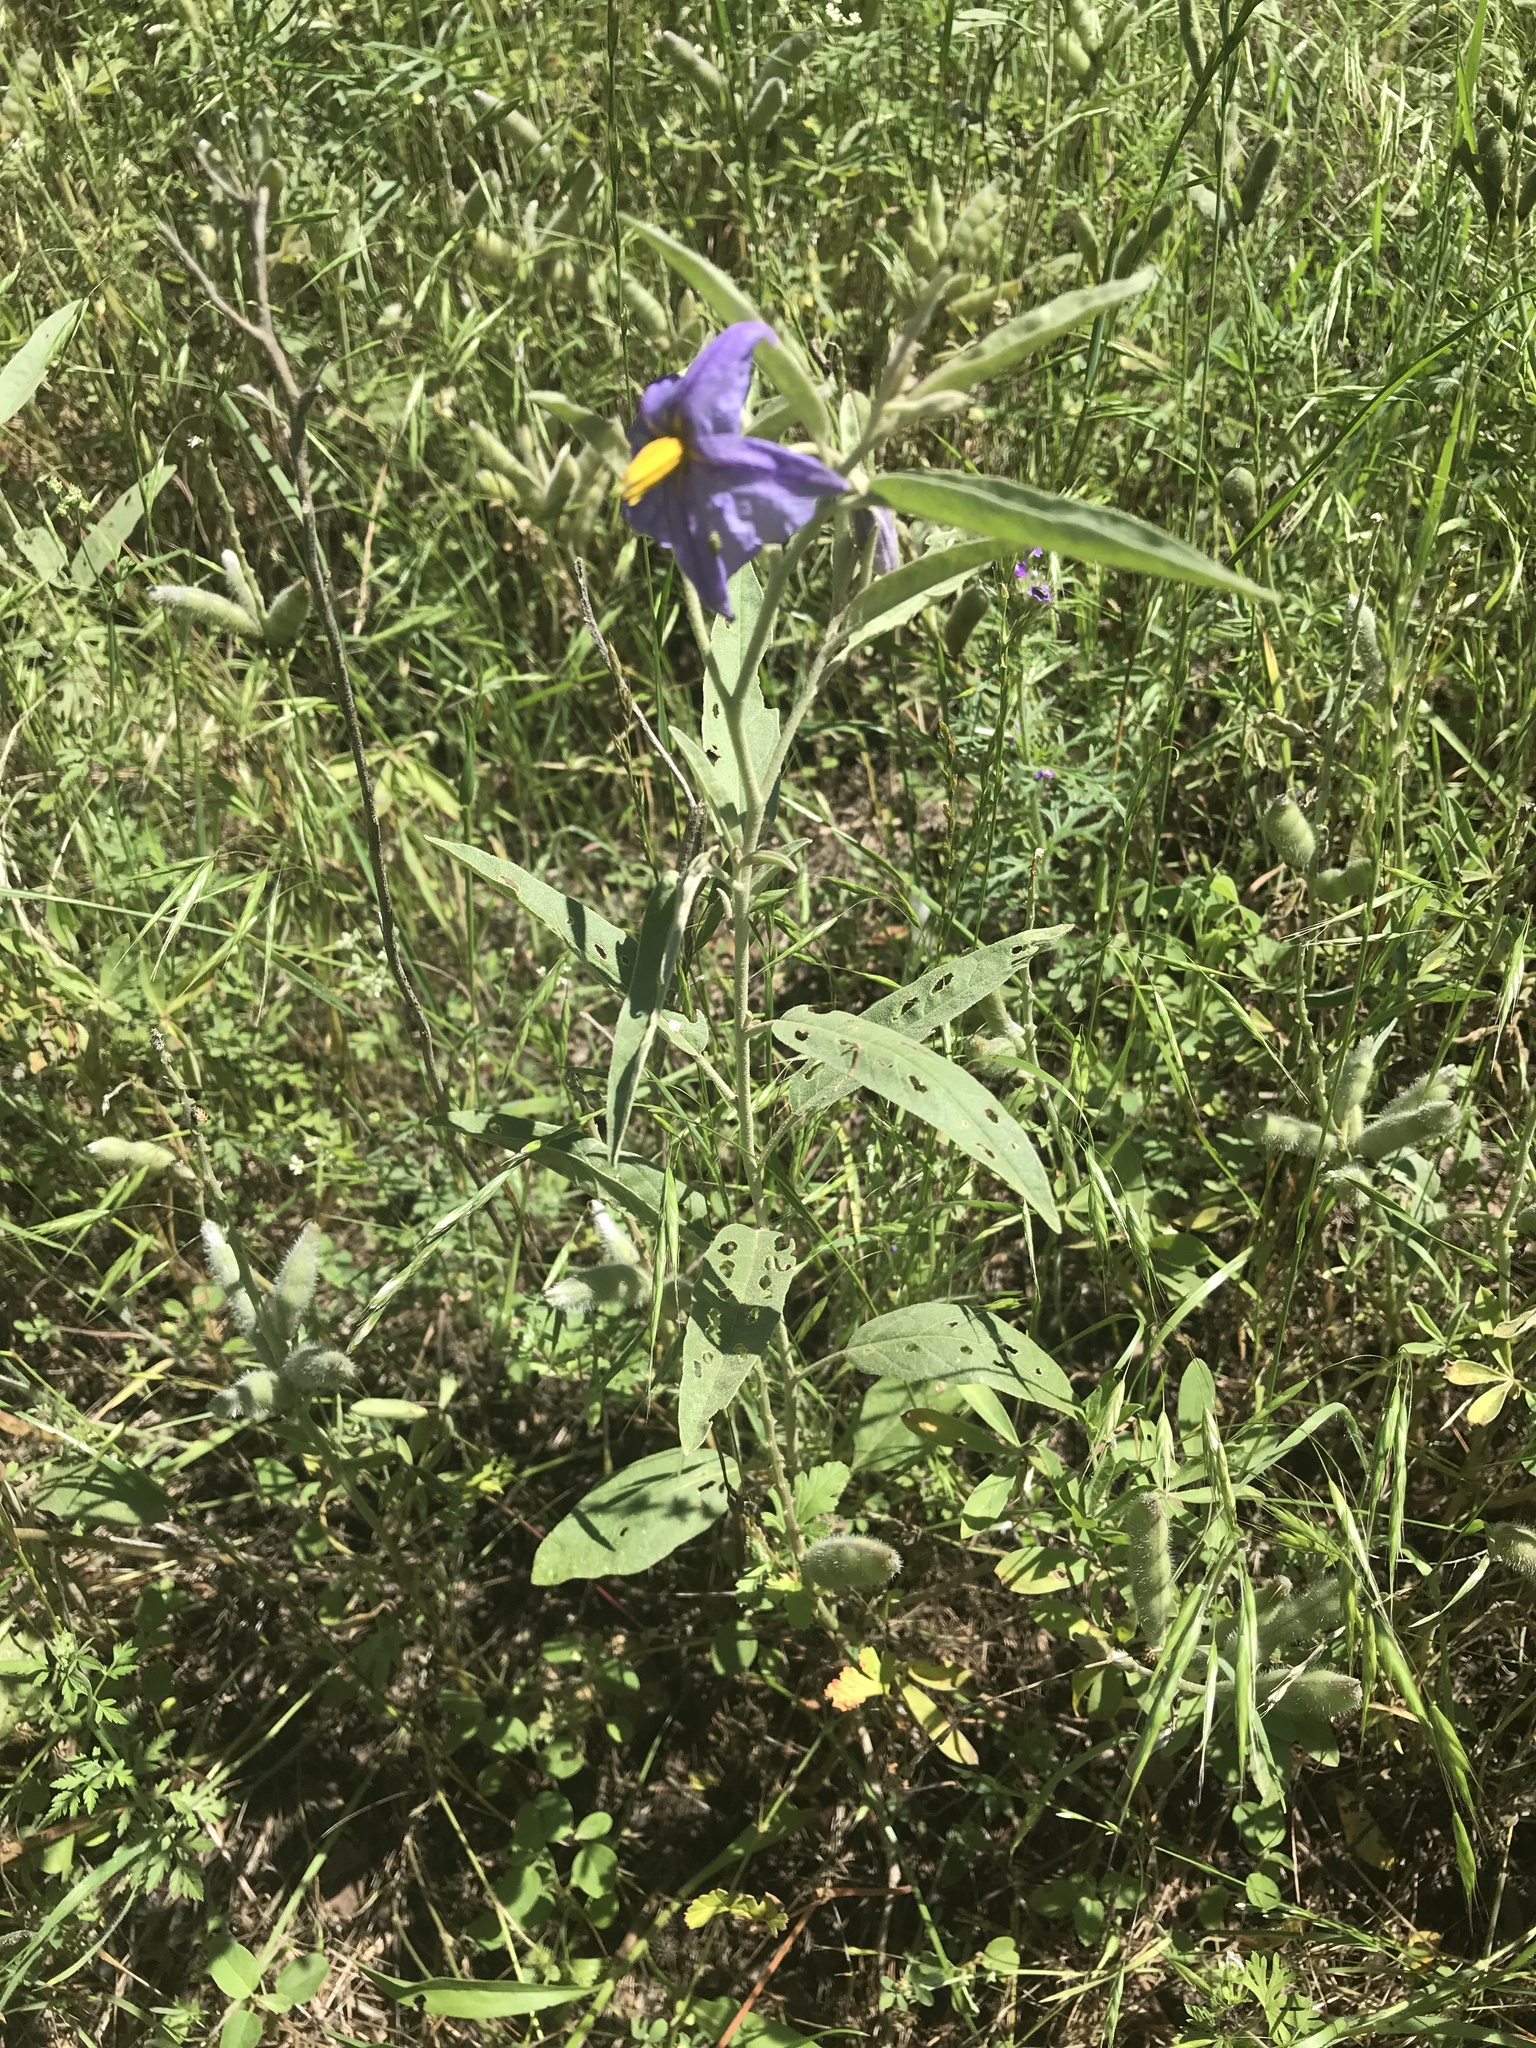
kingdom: Plantae
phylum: Tracheophyta
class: Magnoliopsida
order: Solanales
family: Solanaceae
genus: Solanum
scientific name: Solanum elaeagnifolium
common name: Silverleaf nightshade
